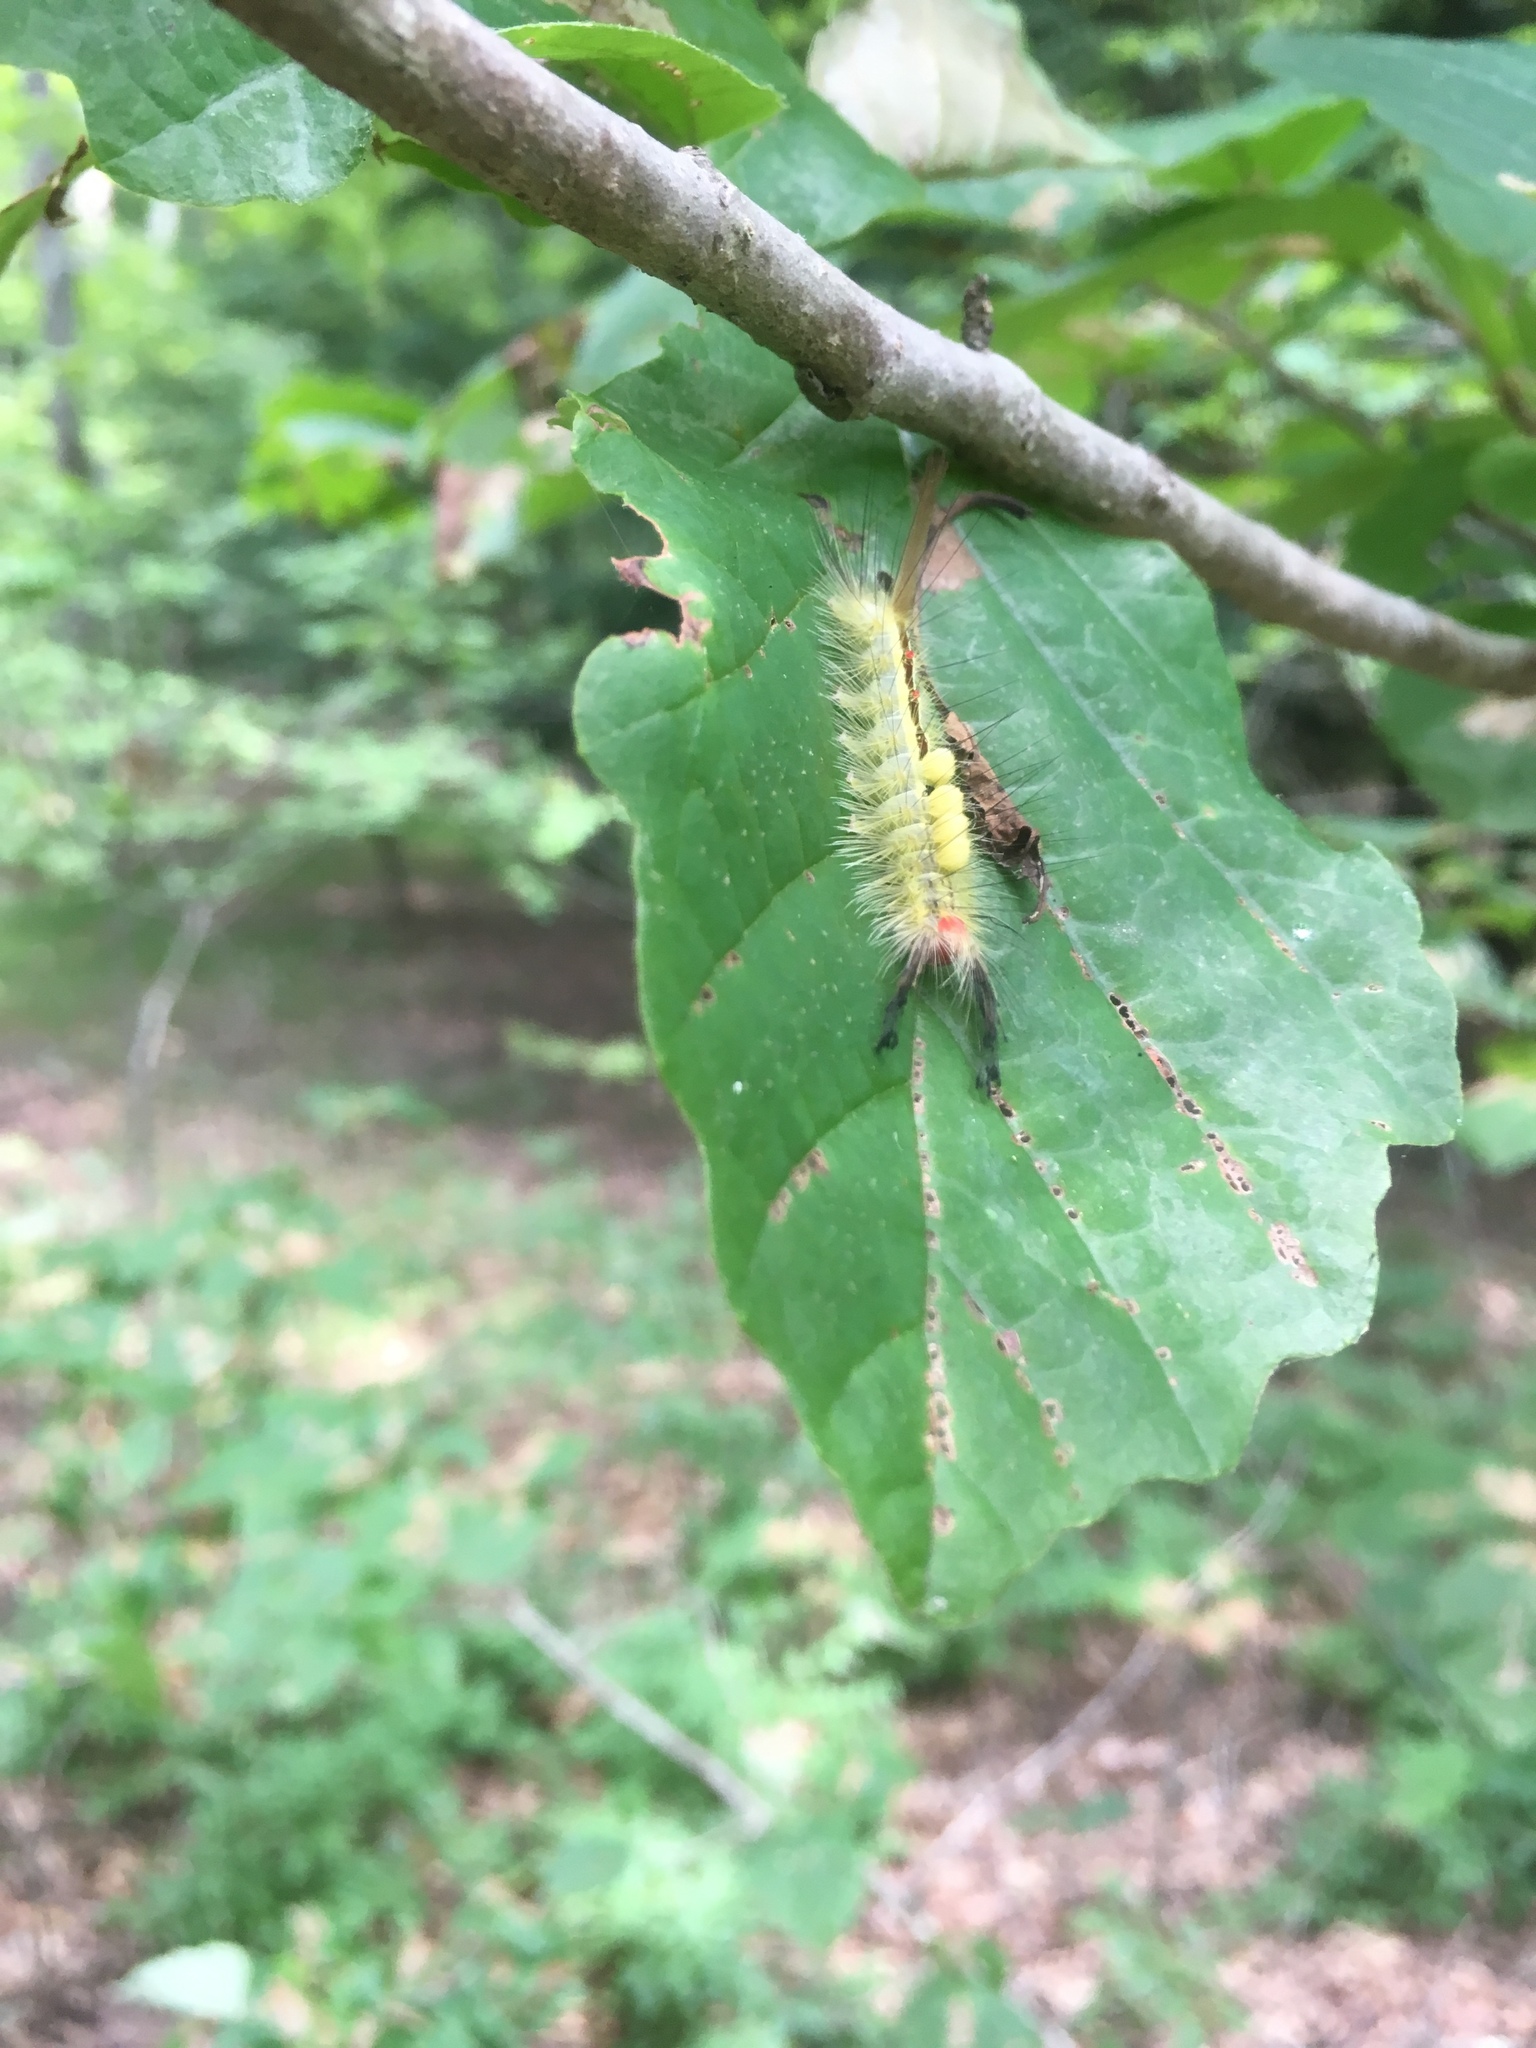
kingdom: Animalia
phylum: Arthropoda
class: Insecta
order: Lepidoptera
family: Erebidae
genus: Orgyia
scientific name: Orgyia leucostigma
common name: White-marked tussock moth
